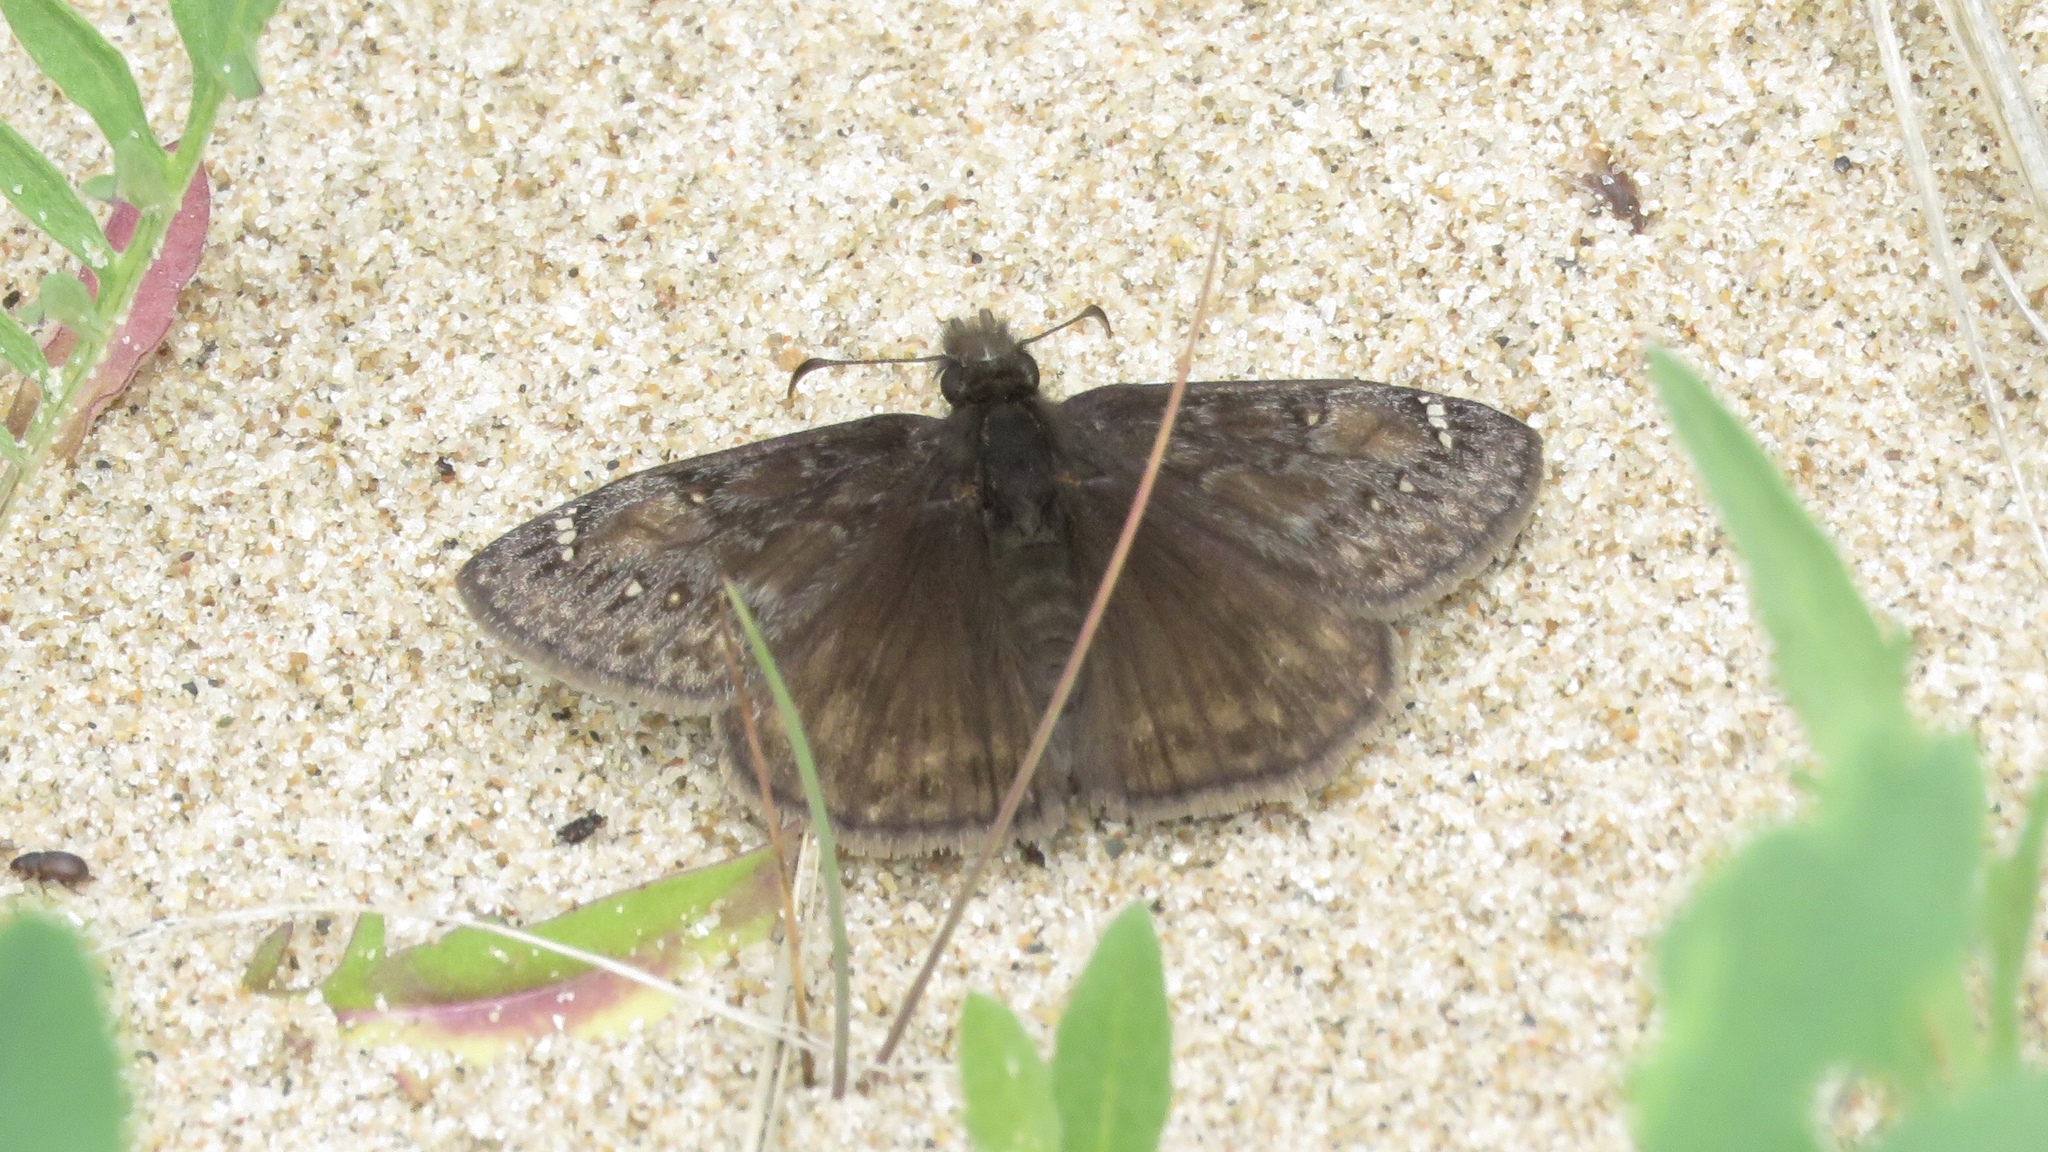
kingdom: Animalia
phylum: Arthropoda
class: Insecta
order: Lepidoptera
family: Hesperiidae
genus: Erynnis
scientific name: Erynnis juvenalis
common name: Juvenal's duskywing
